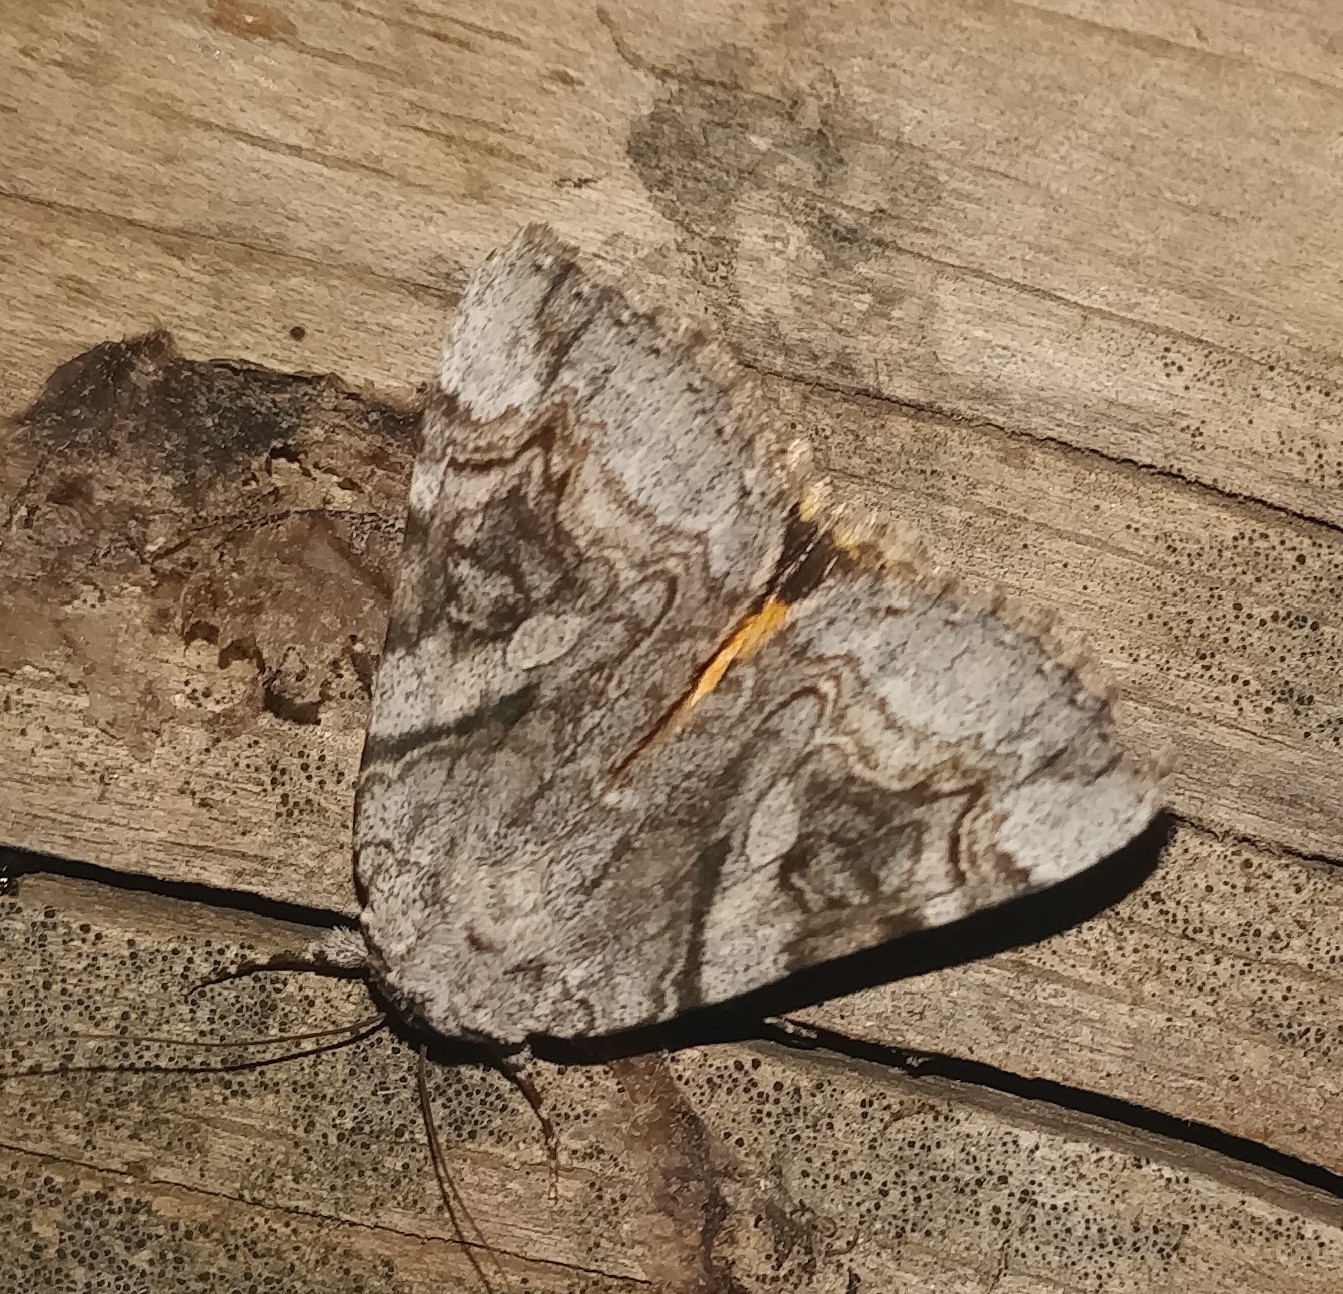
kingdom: Animalia
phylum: Arthropoda
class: Insecta
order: Lepidoptera
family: Erebidae
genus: Catocala
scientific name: Catocala amestris
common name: The leadplant underwing moth
